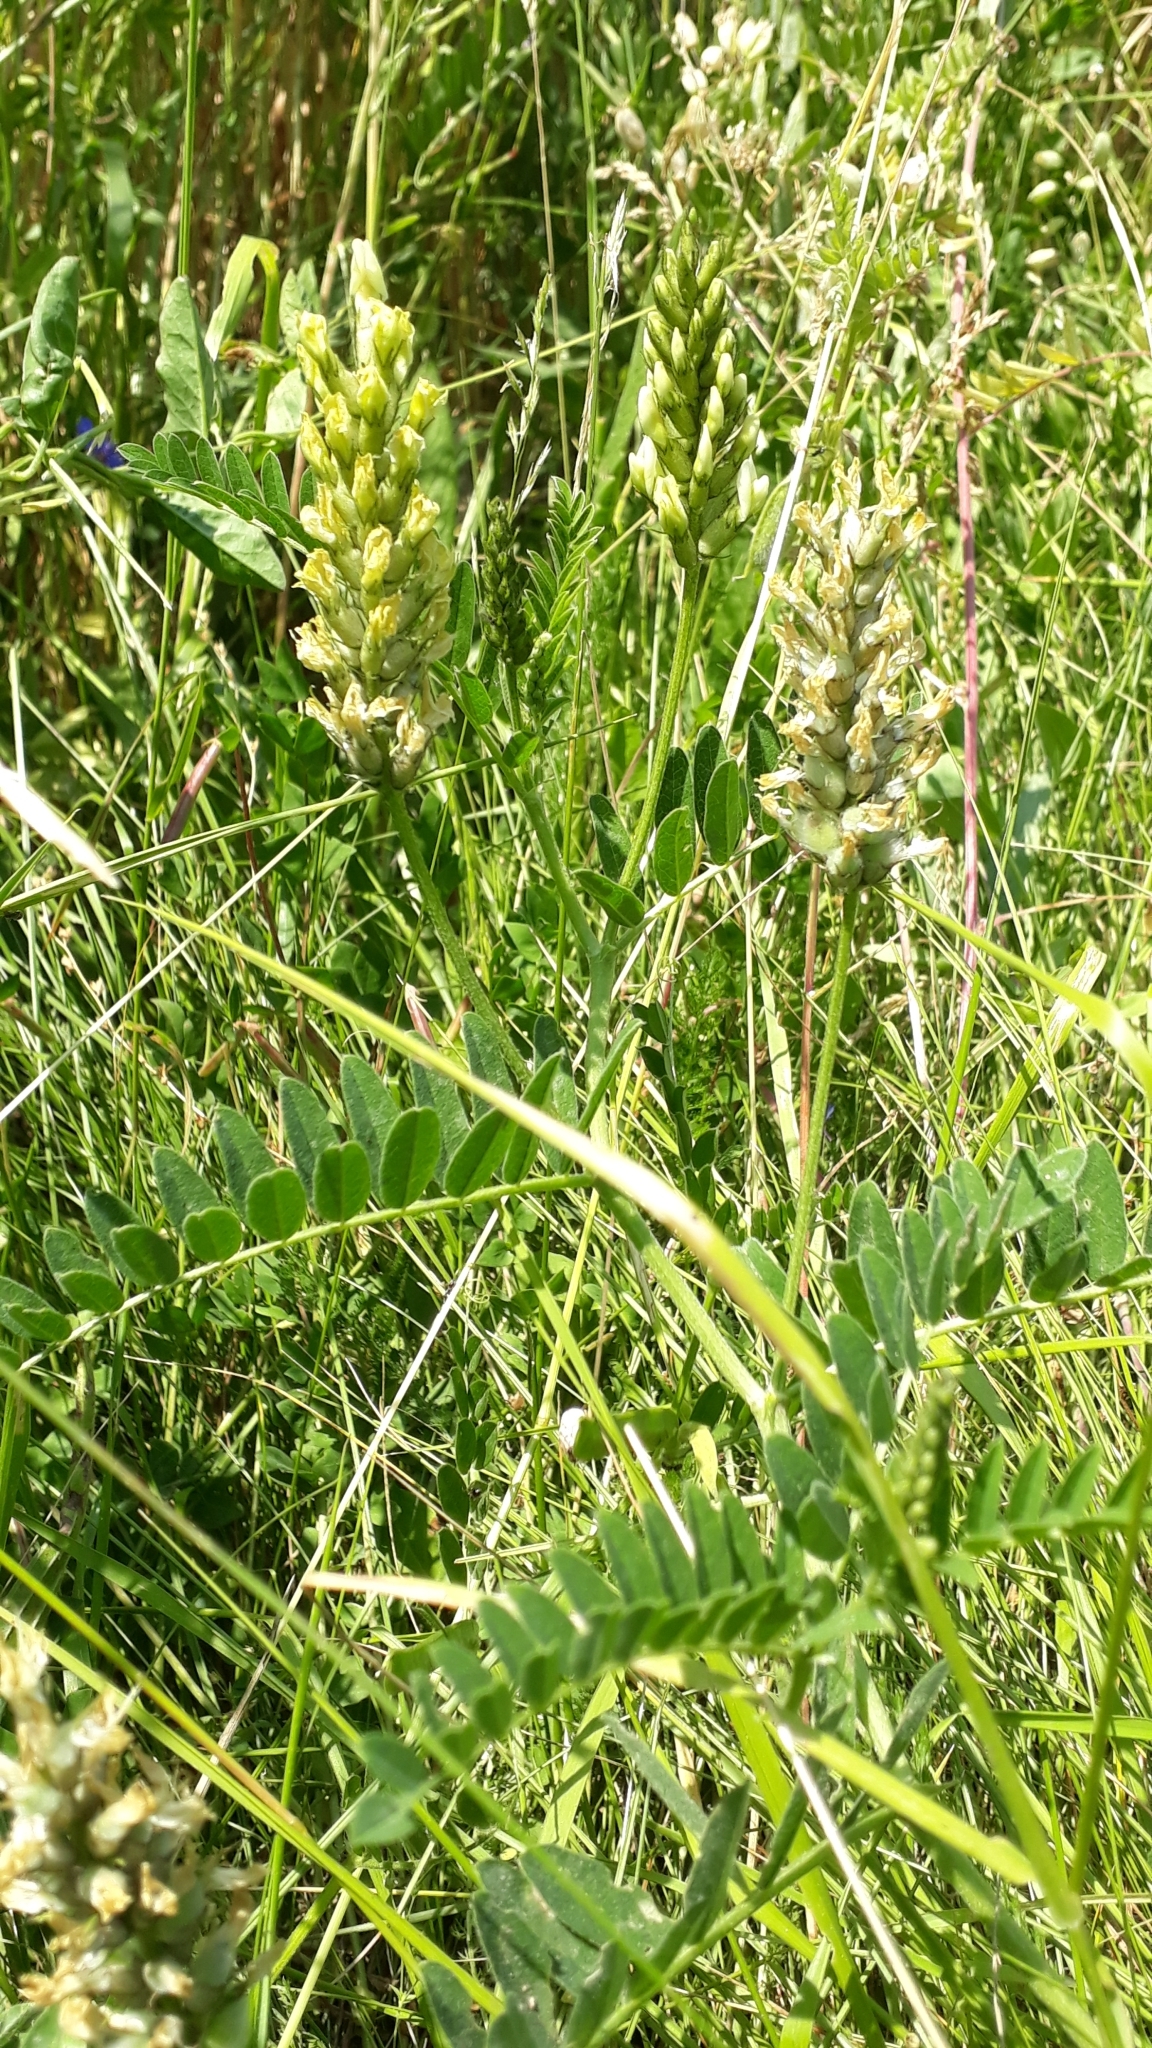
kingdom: Plantae
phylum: Tracheophyta
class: Magnoliopsida
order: Fabales
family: Fabaceae
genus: Astragalus
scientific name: Astragalus cicer
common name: Chick-pea milk-vetch
